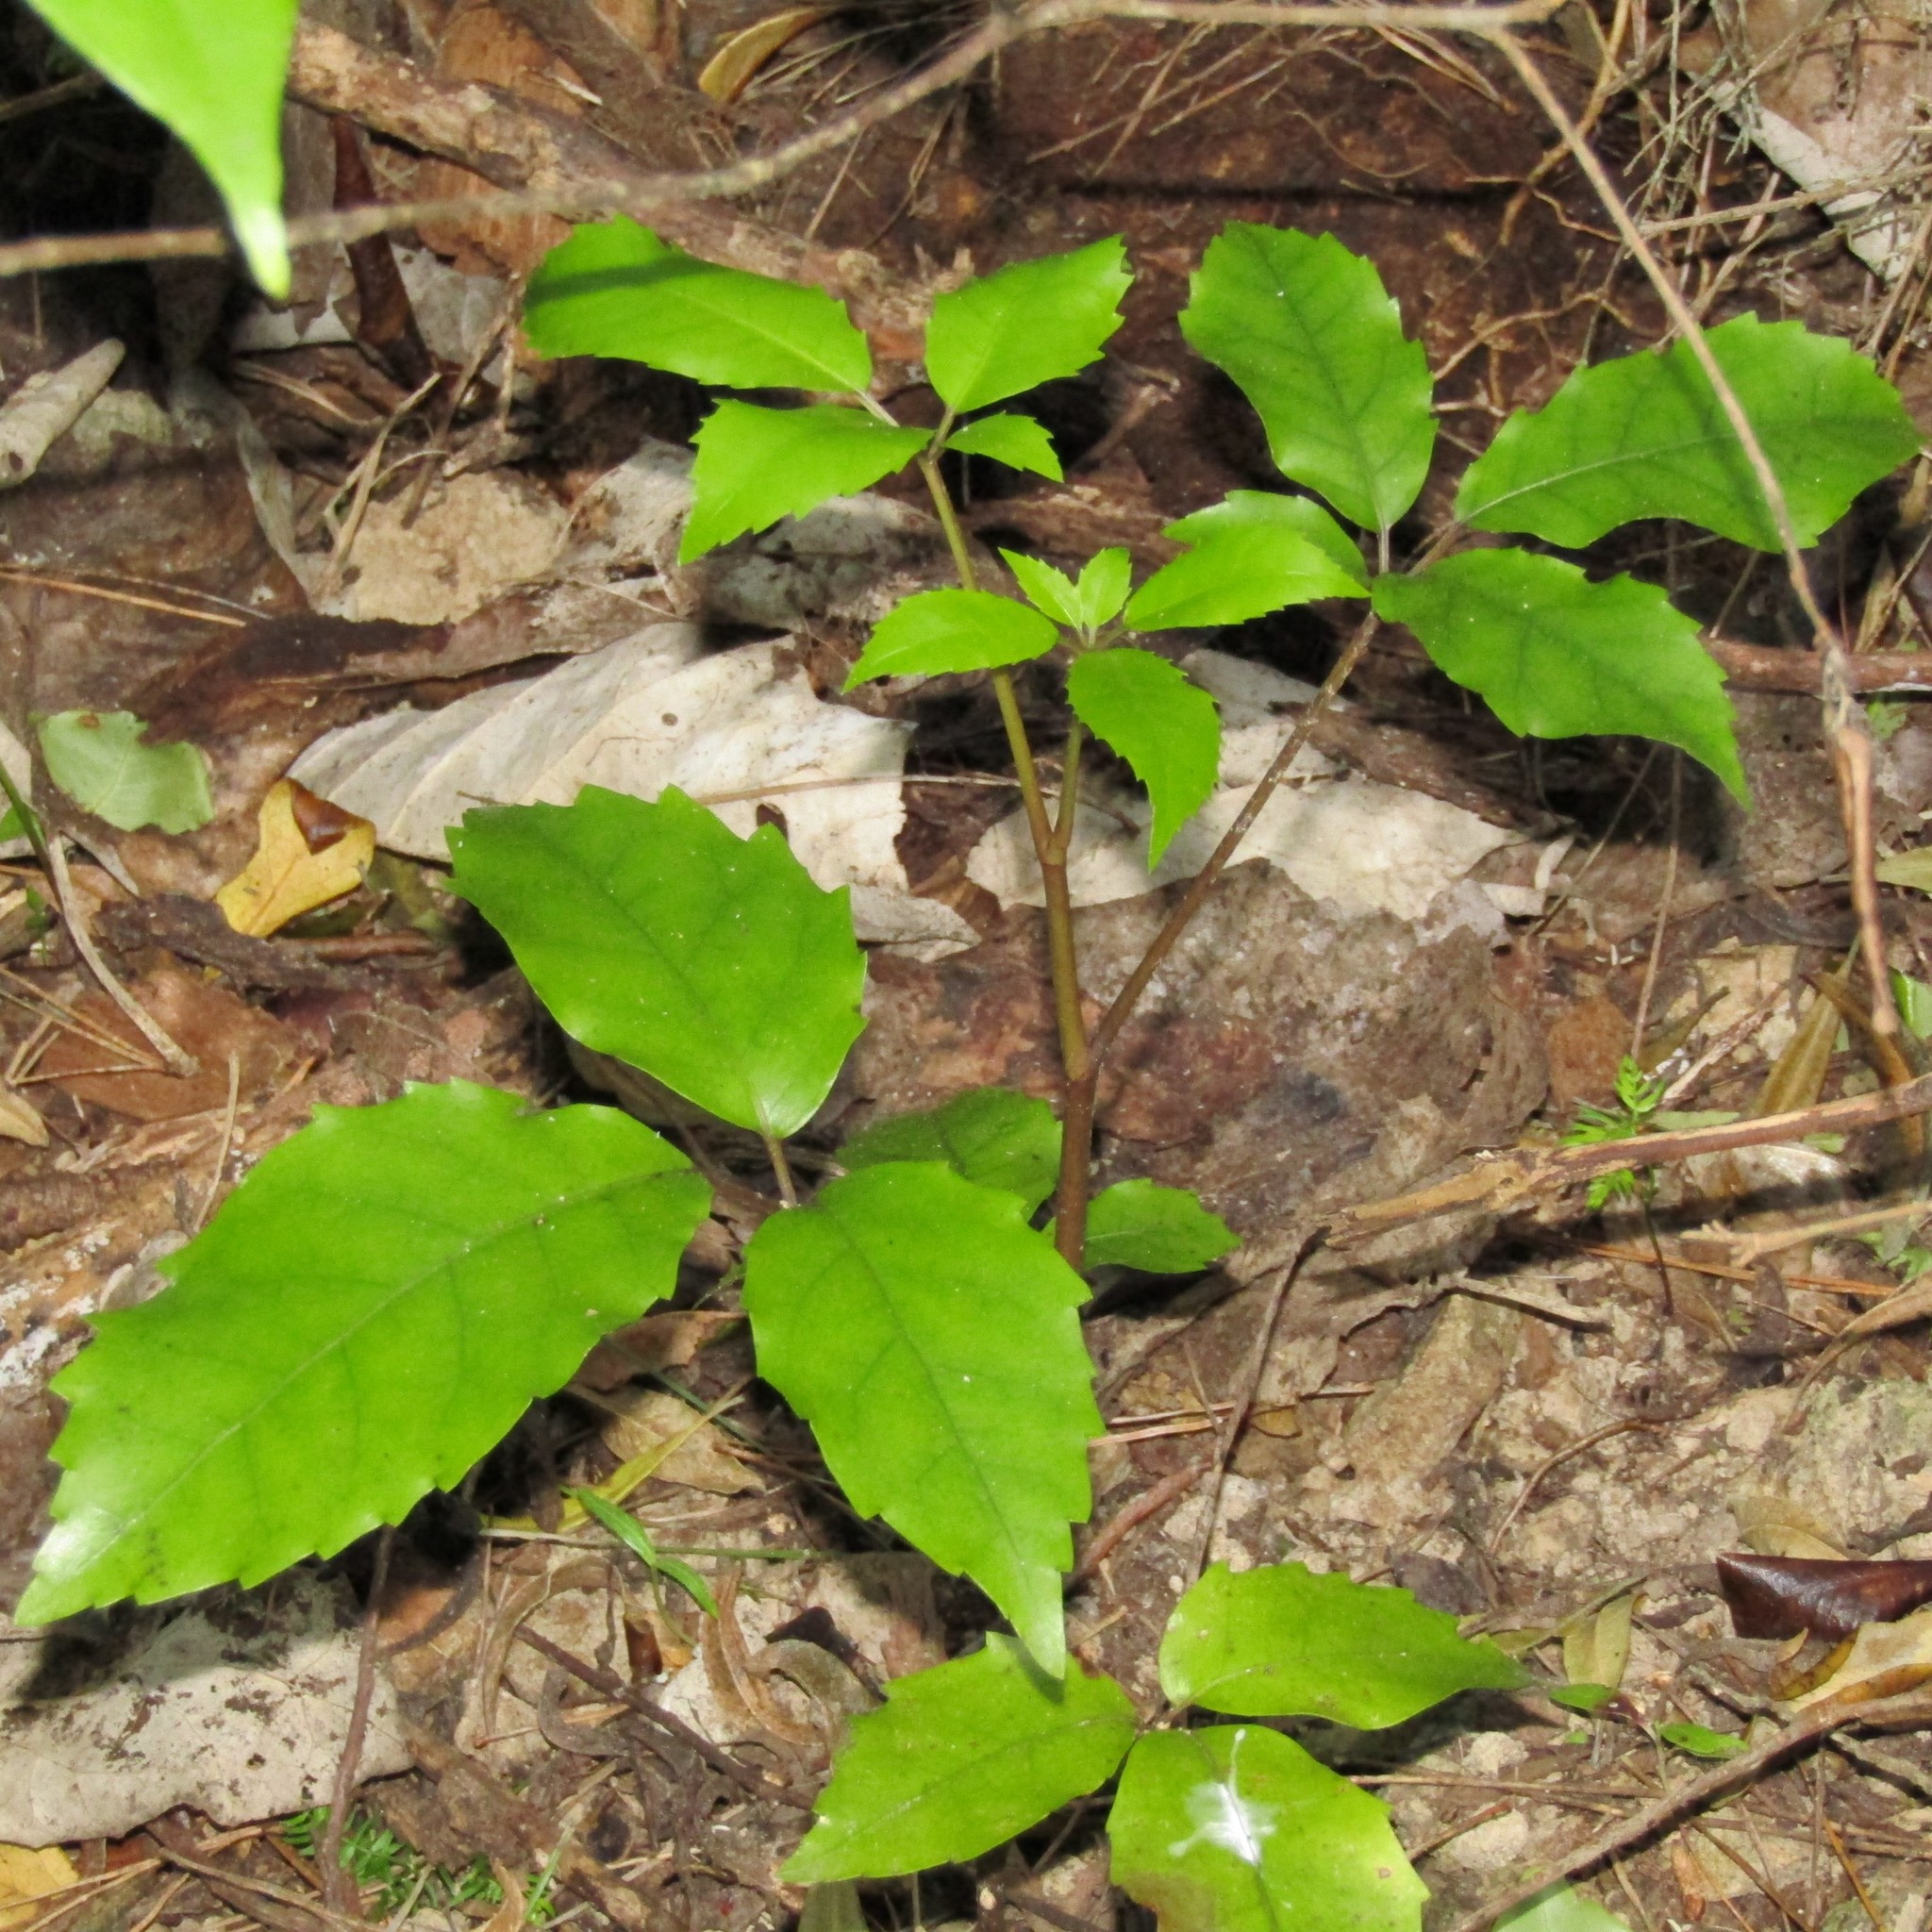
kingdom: Plantae
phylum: Tracheophyta
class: Magnoliopsida
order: Apiales
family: Araliaceae
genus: Neopanax
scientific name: Neopanax arboreus
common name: Five-fingers
